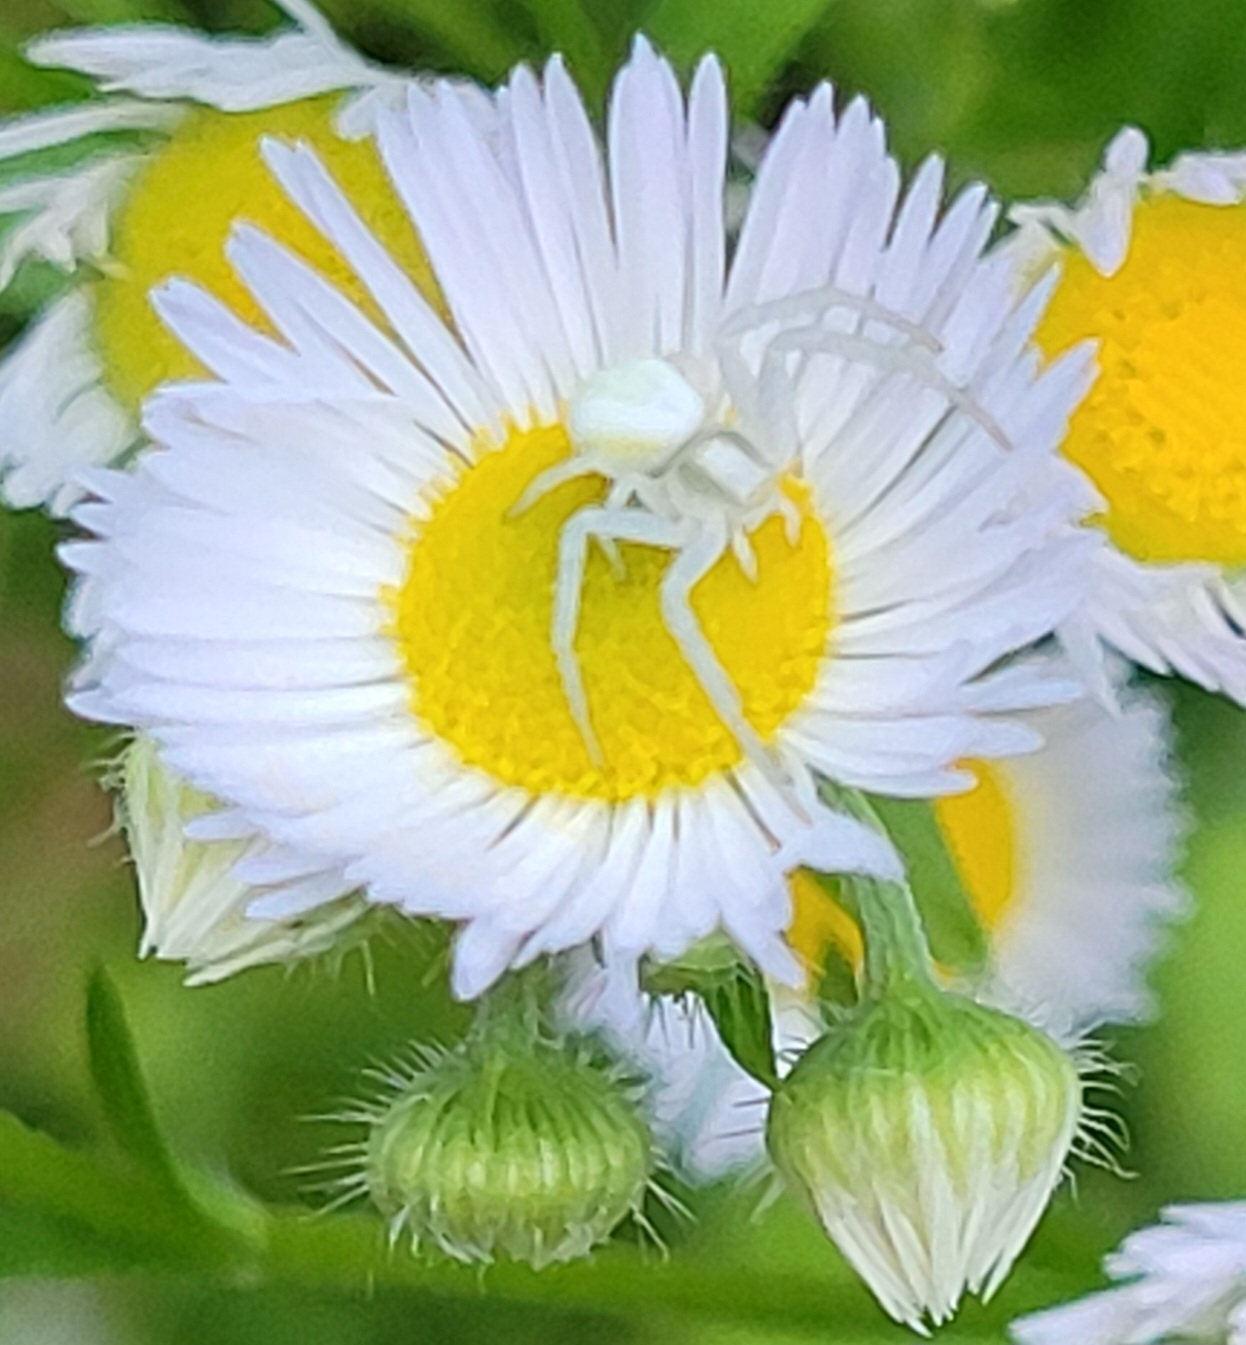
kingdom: Animalia
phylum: Arthropoda
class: Arachnida
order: Araneae
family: Thomisidae
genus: Misumena
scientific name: Misumena vatia
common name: Goldenrod crab spider
